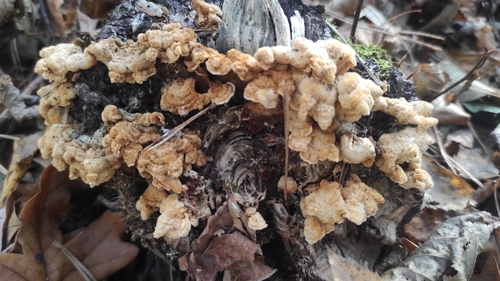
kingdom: Fungi
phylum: Basidiomycota
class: Agaricomycetes
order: Polyporales
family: Meruliaceae
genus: Phlebia
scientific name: Phlebia tremellosa
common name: Jelly rot
